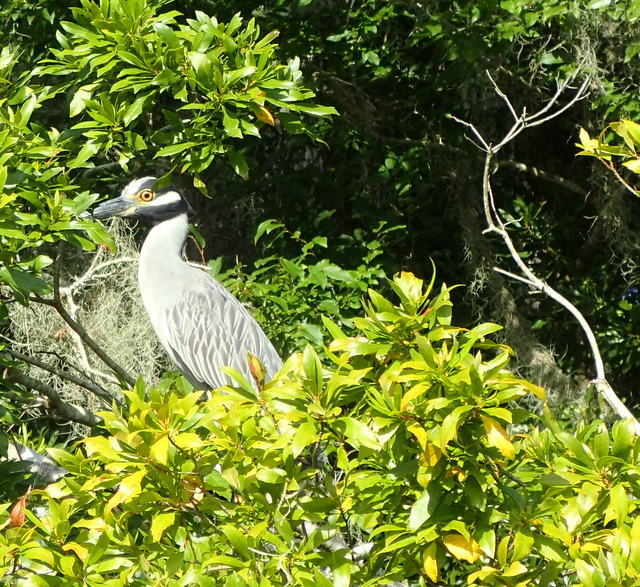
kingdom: Animalia
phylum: Chordata
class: Aves
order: Pelecaniformes
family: Ardeidae
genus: Nyctanassa
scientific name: Nyctanassa violacea
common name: Yellow-crowned night heron
